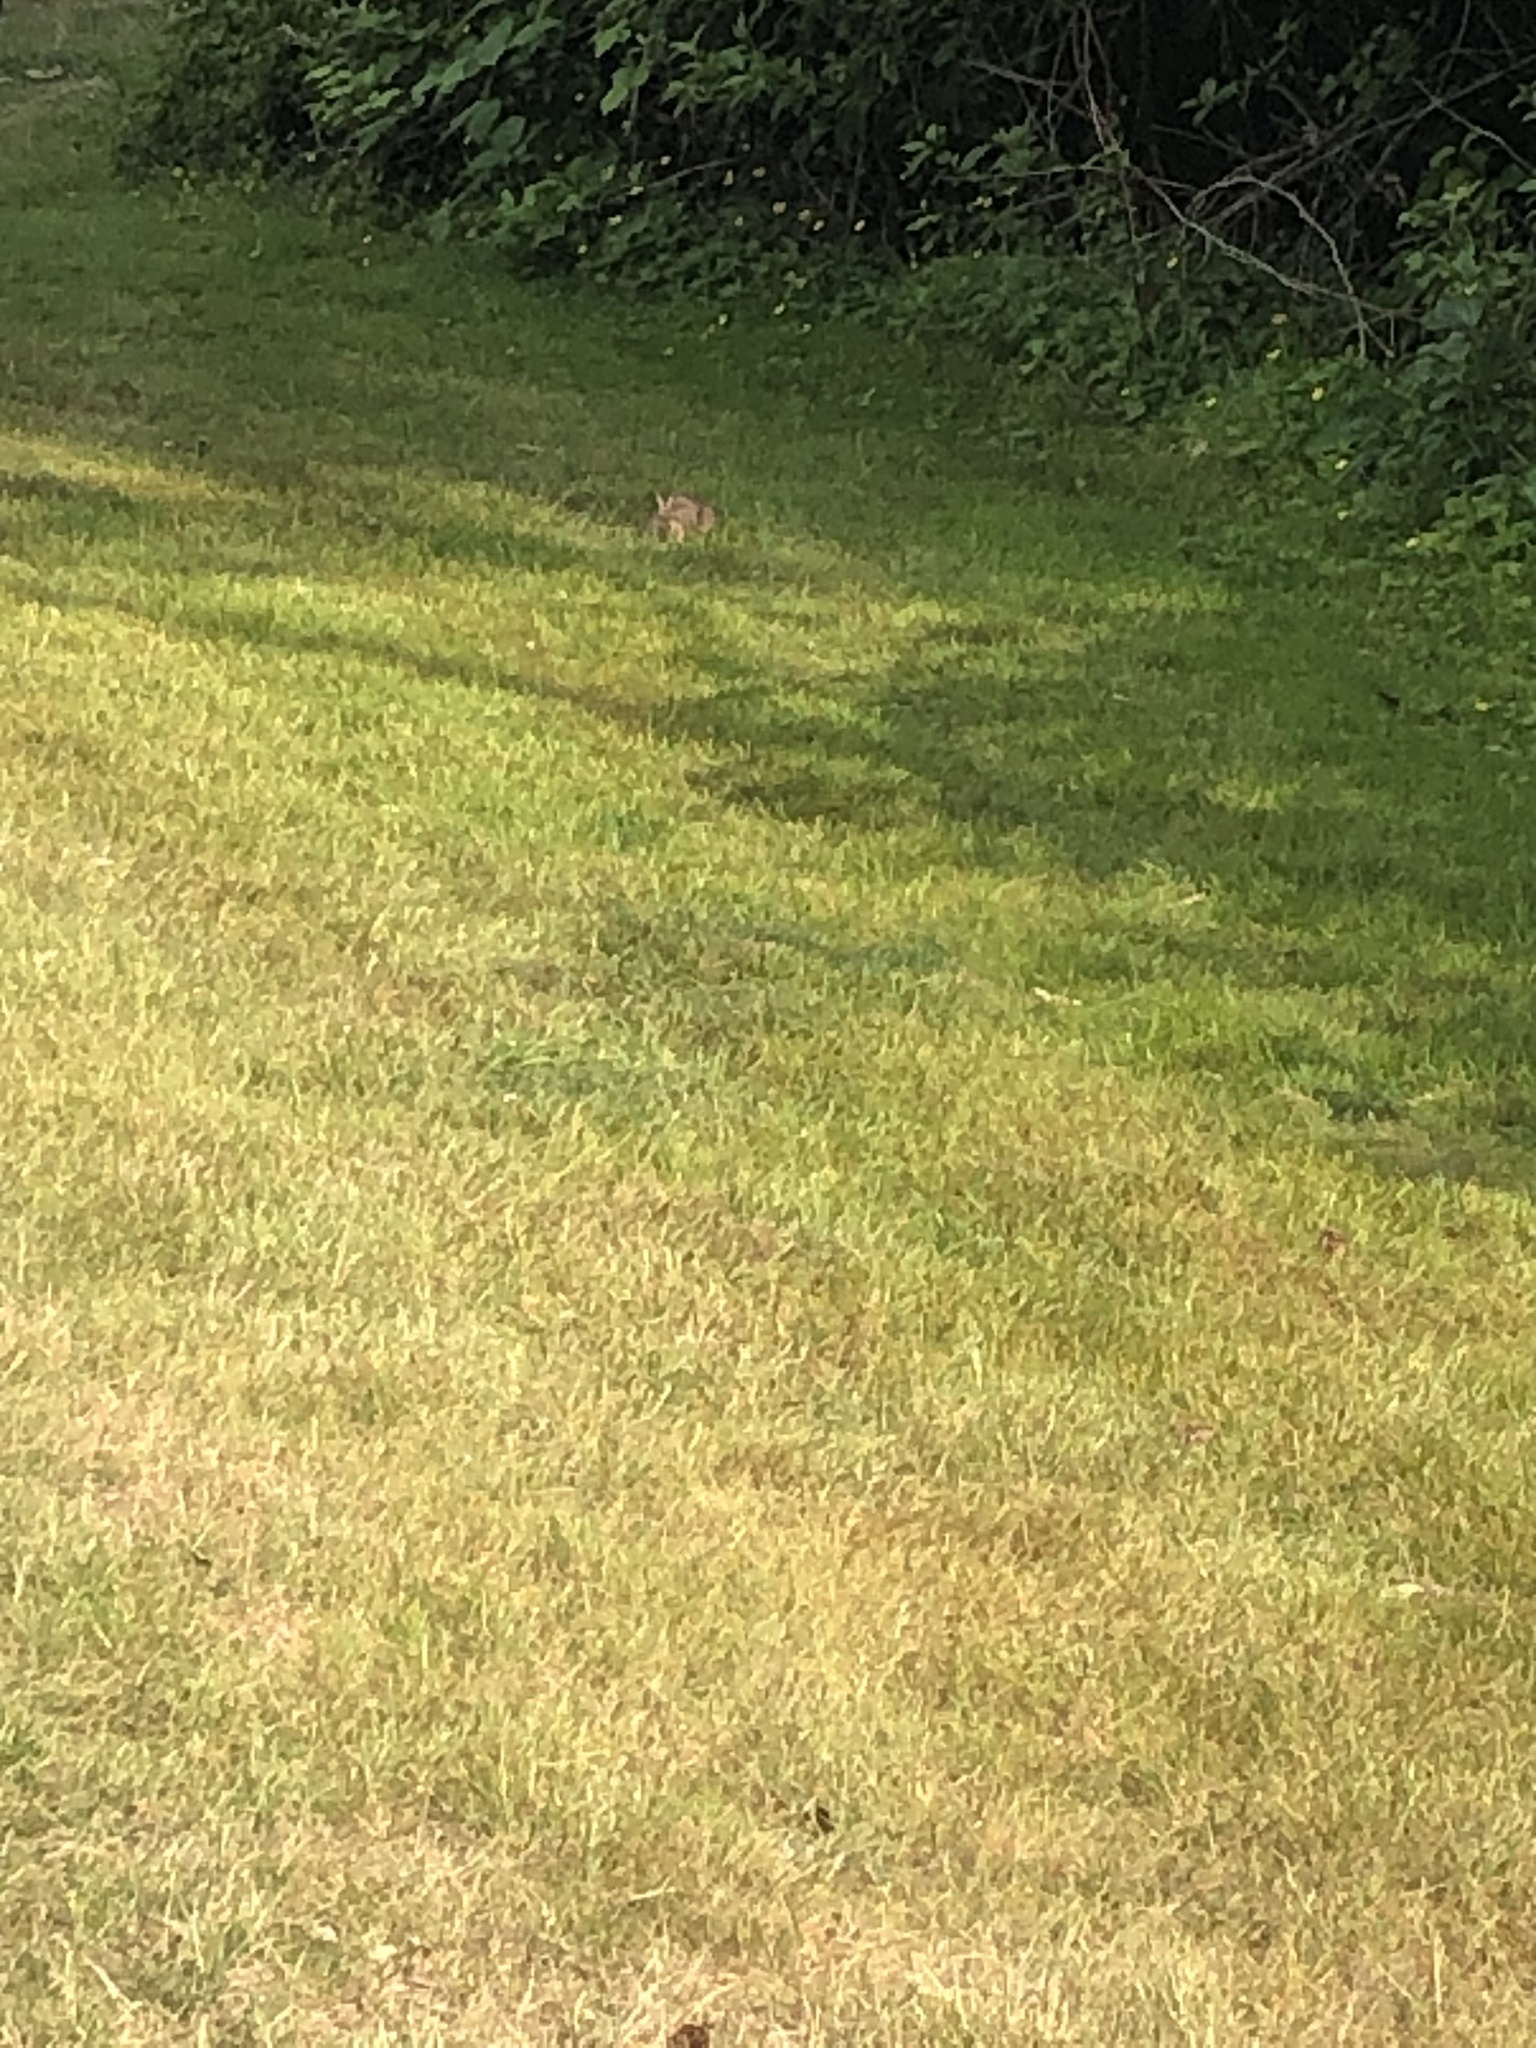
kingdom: Animalia
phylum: Chordata
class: Mammalia
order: Lagomorpha
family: Leporidae
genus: Sylvilagus
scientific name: Sylvilagus floridanus
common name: Eastern cottontail
